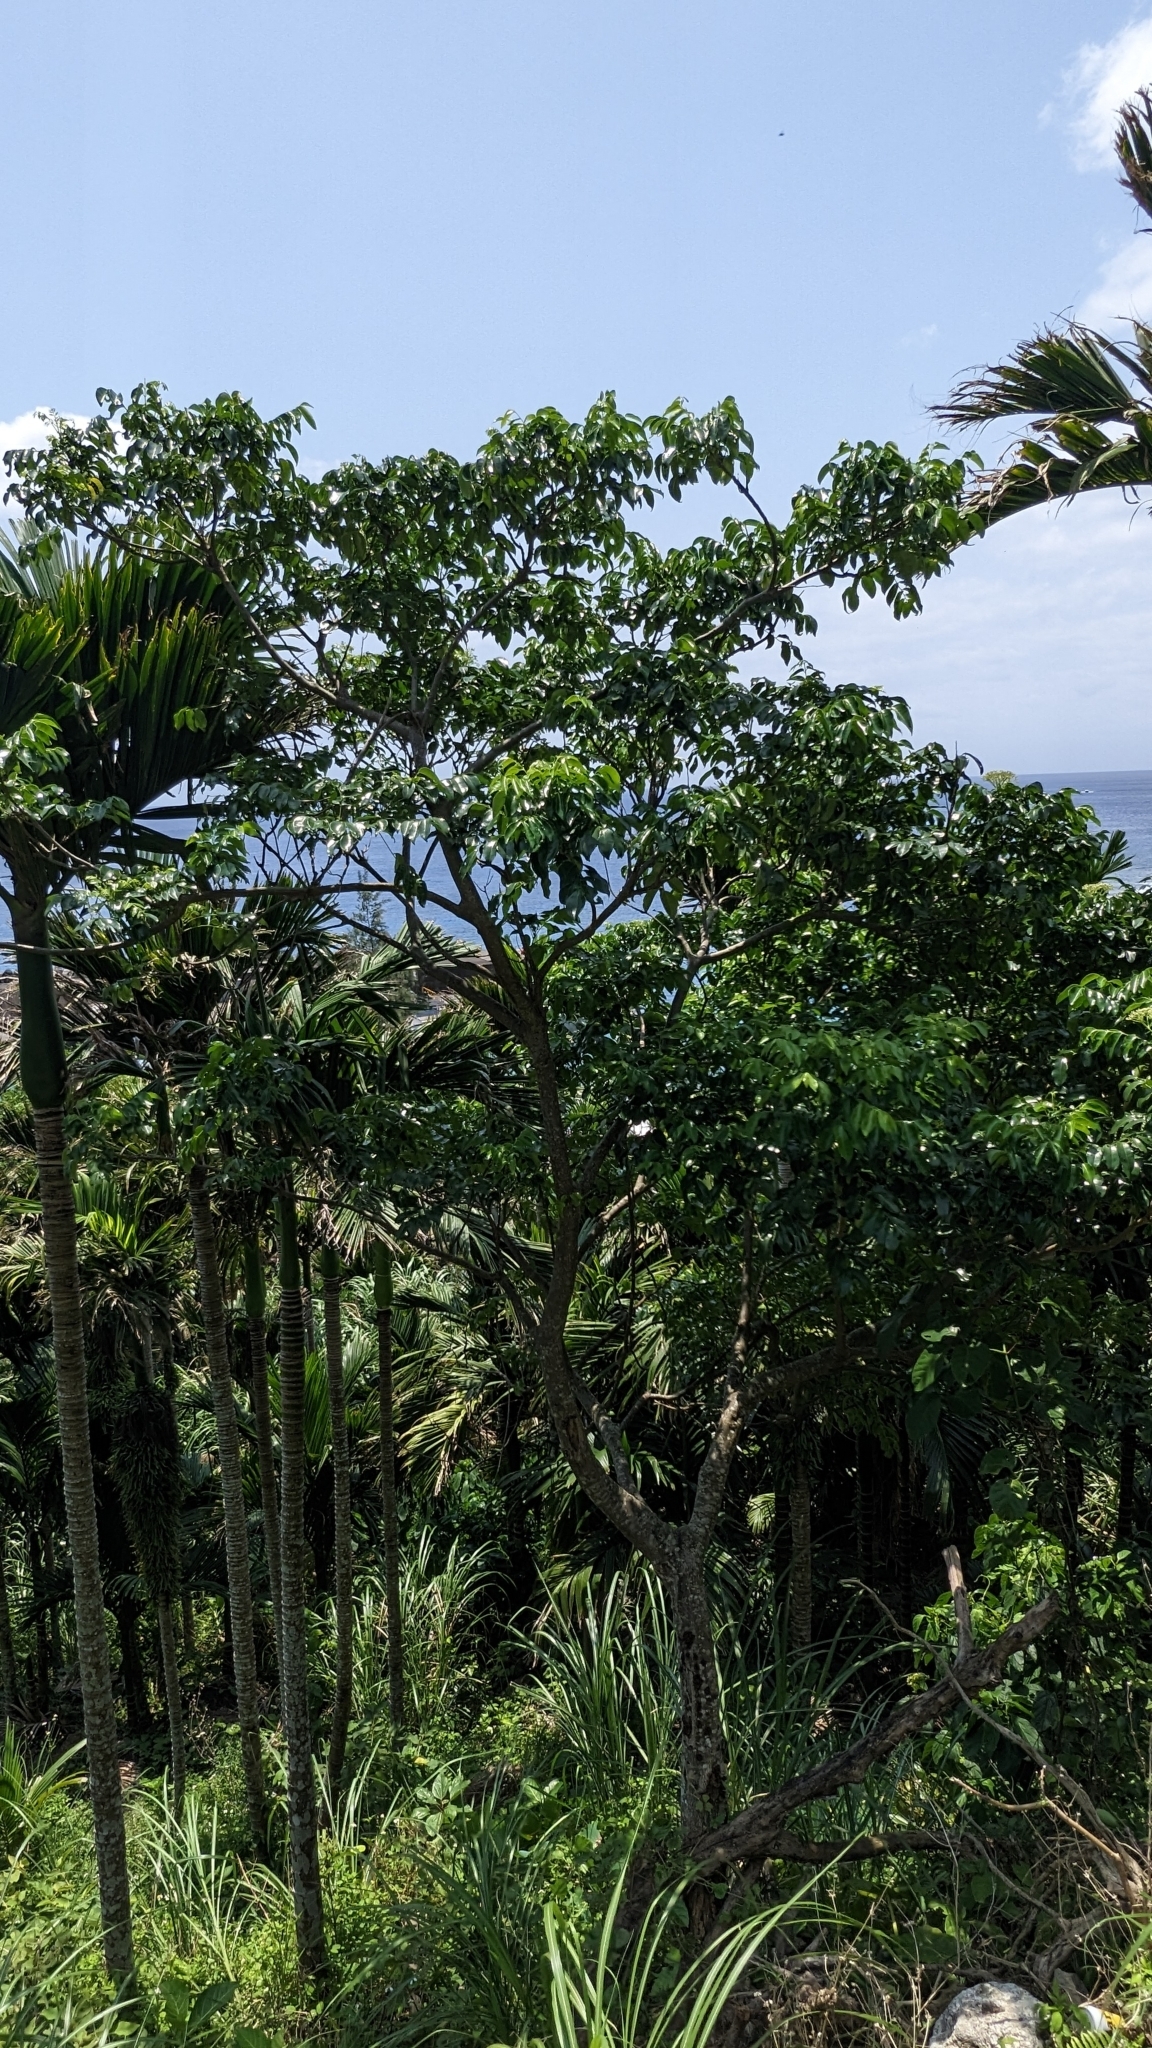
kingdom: Plantae
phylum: Tracheophyta
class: Magnoliopsida
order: Sapindales
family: Rutaceae
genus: Murraya
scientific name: Murraya crenulata
